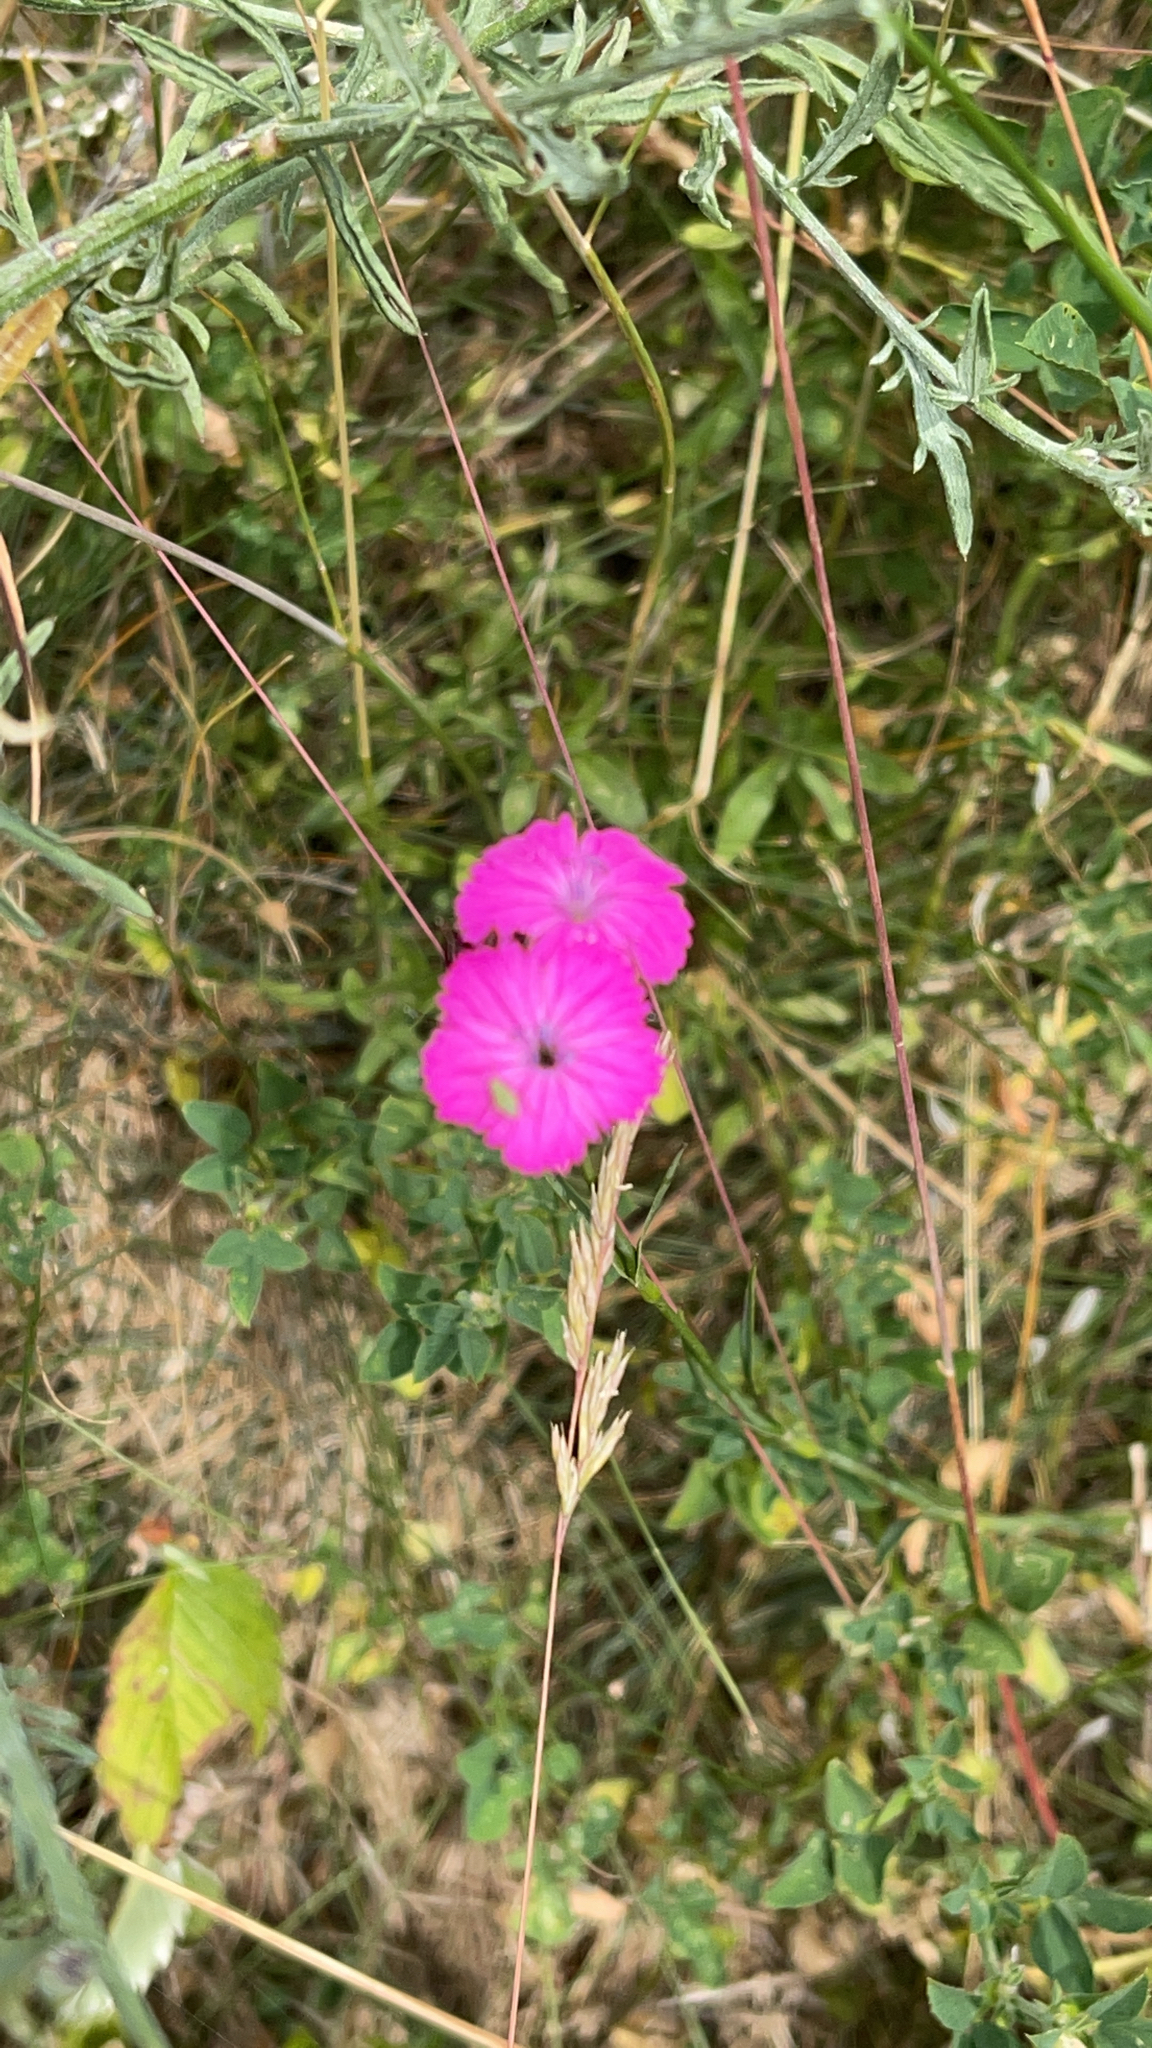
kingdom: Plantae
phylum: Tracheophyta
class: Magnoliopsida
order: Caryophyllales
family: Caryophyllaceae
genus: Dianthus
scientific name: Dianthus carthusianorum
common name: Carthusian pink
